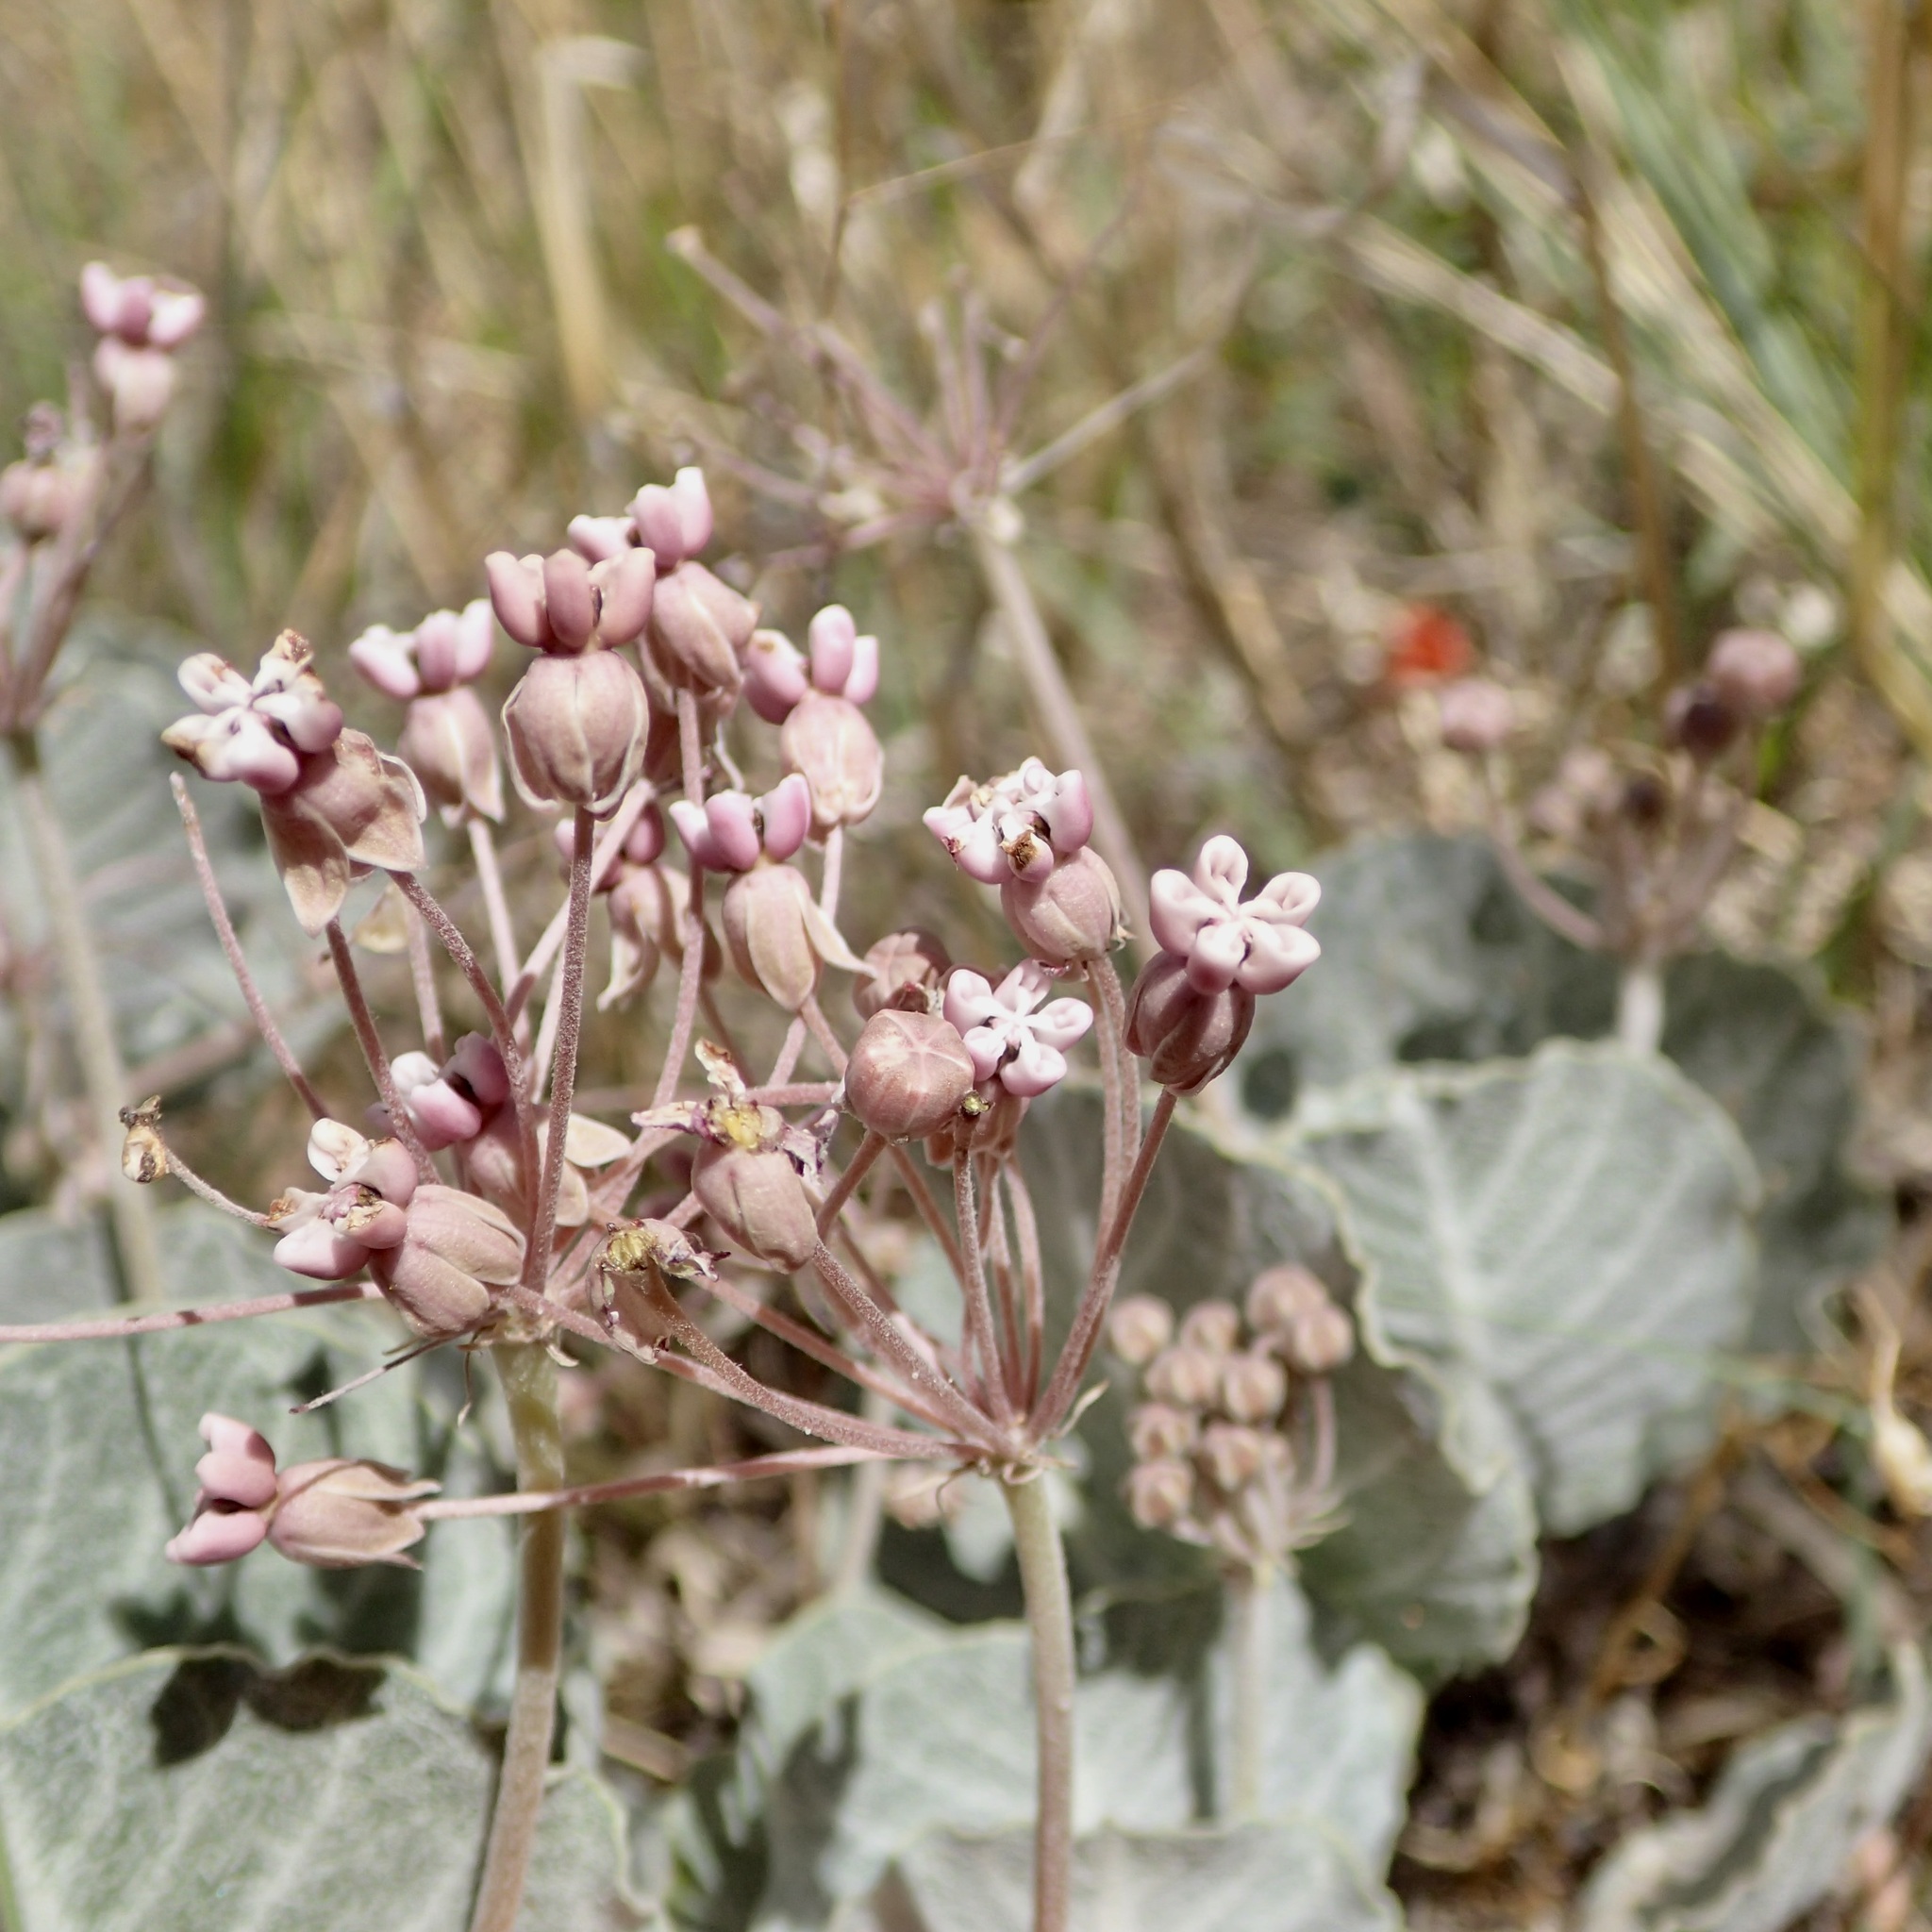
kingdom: Plantae
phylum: Tracheophyta
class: Magnoliopsida
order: Gentianales
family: Apocynaceae
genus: Asclepias
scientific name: Asclepias nummularia
